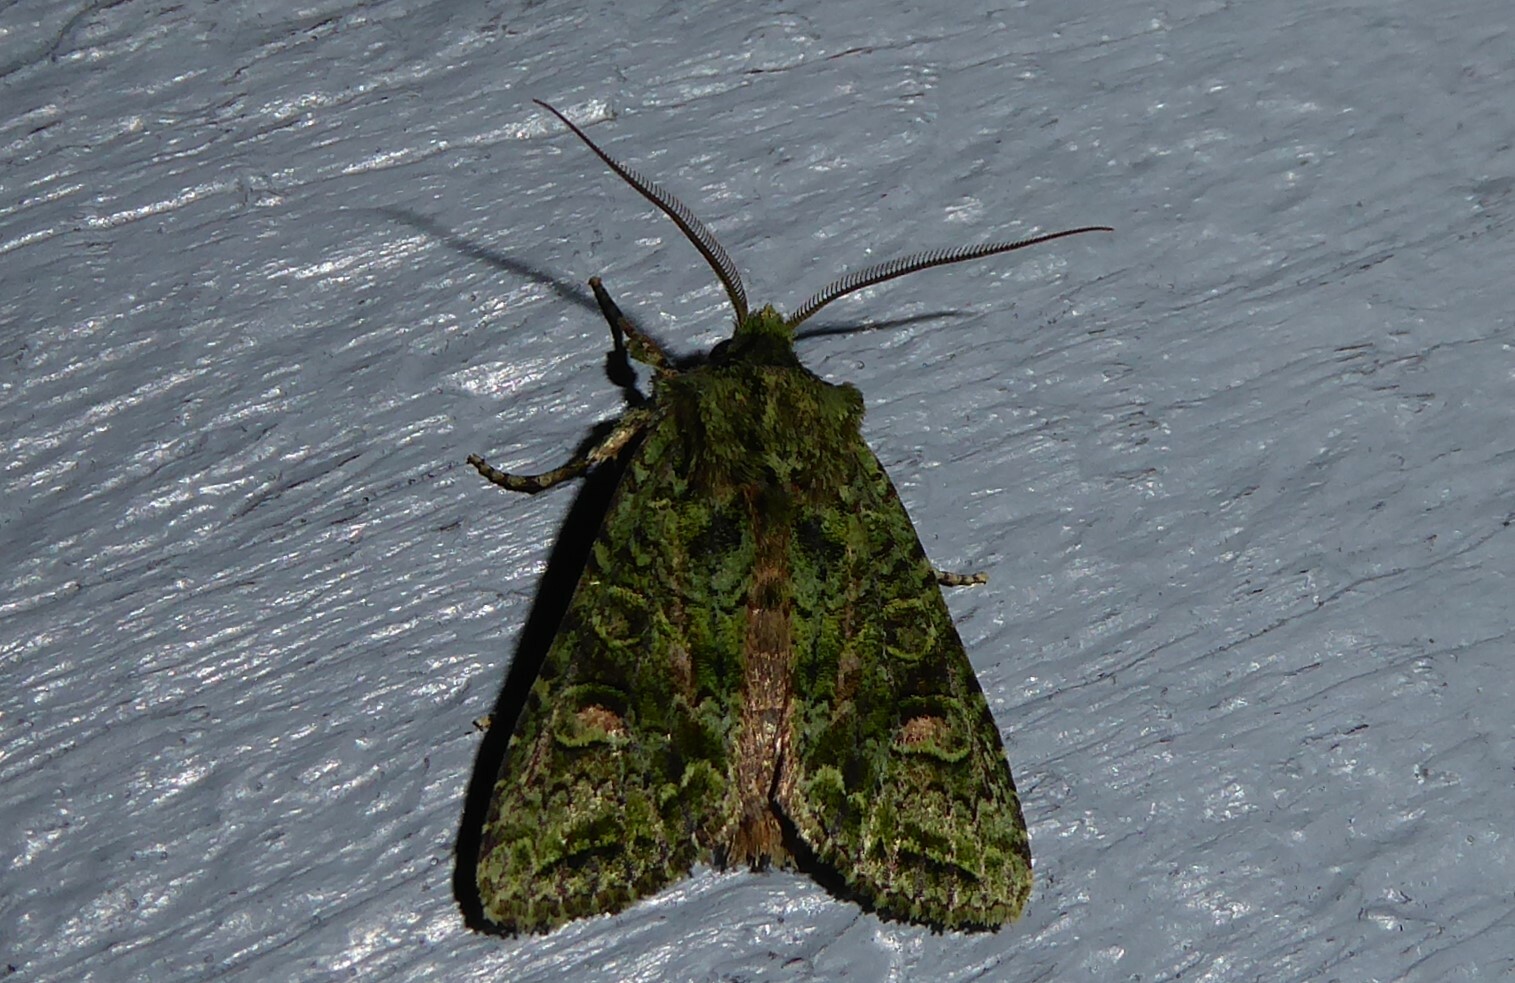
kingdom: Animalia
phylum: Arthropoda
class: Insecta
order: Lepidoptera
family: Noctuidae
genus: Ichneutica
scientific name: Ichneutica
